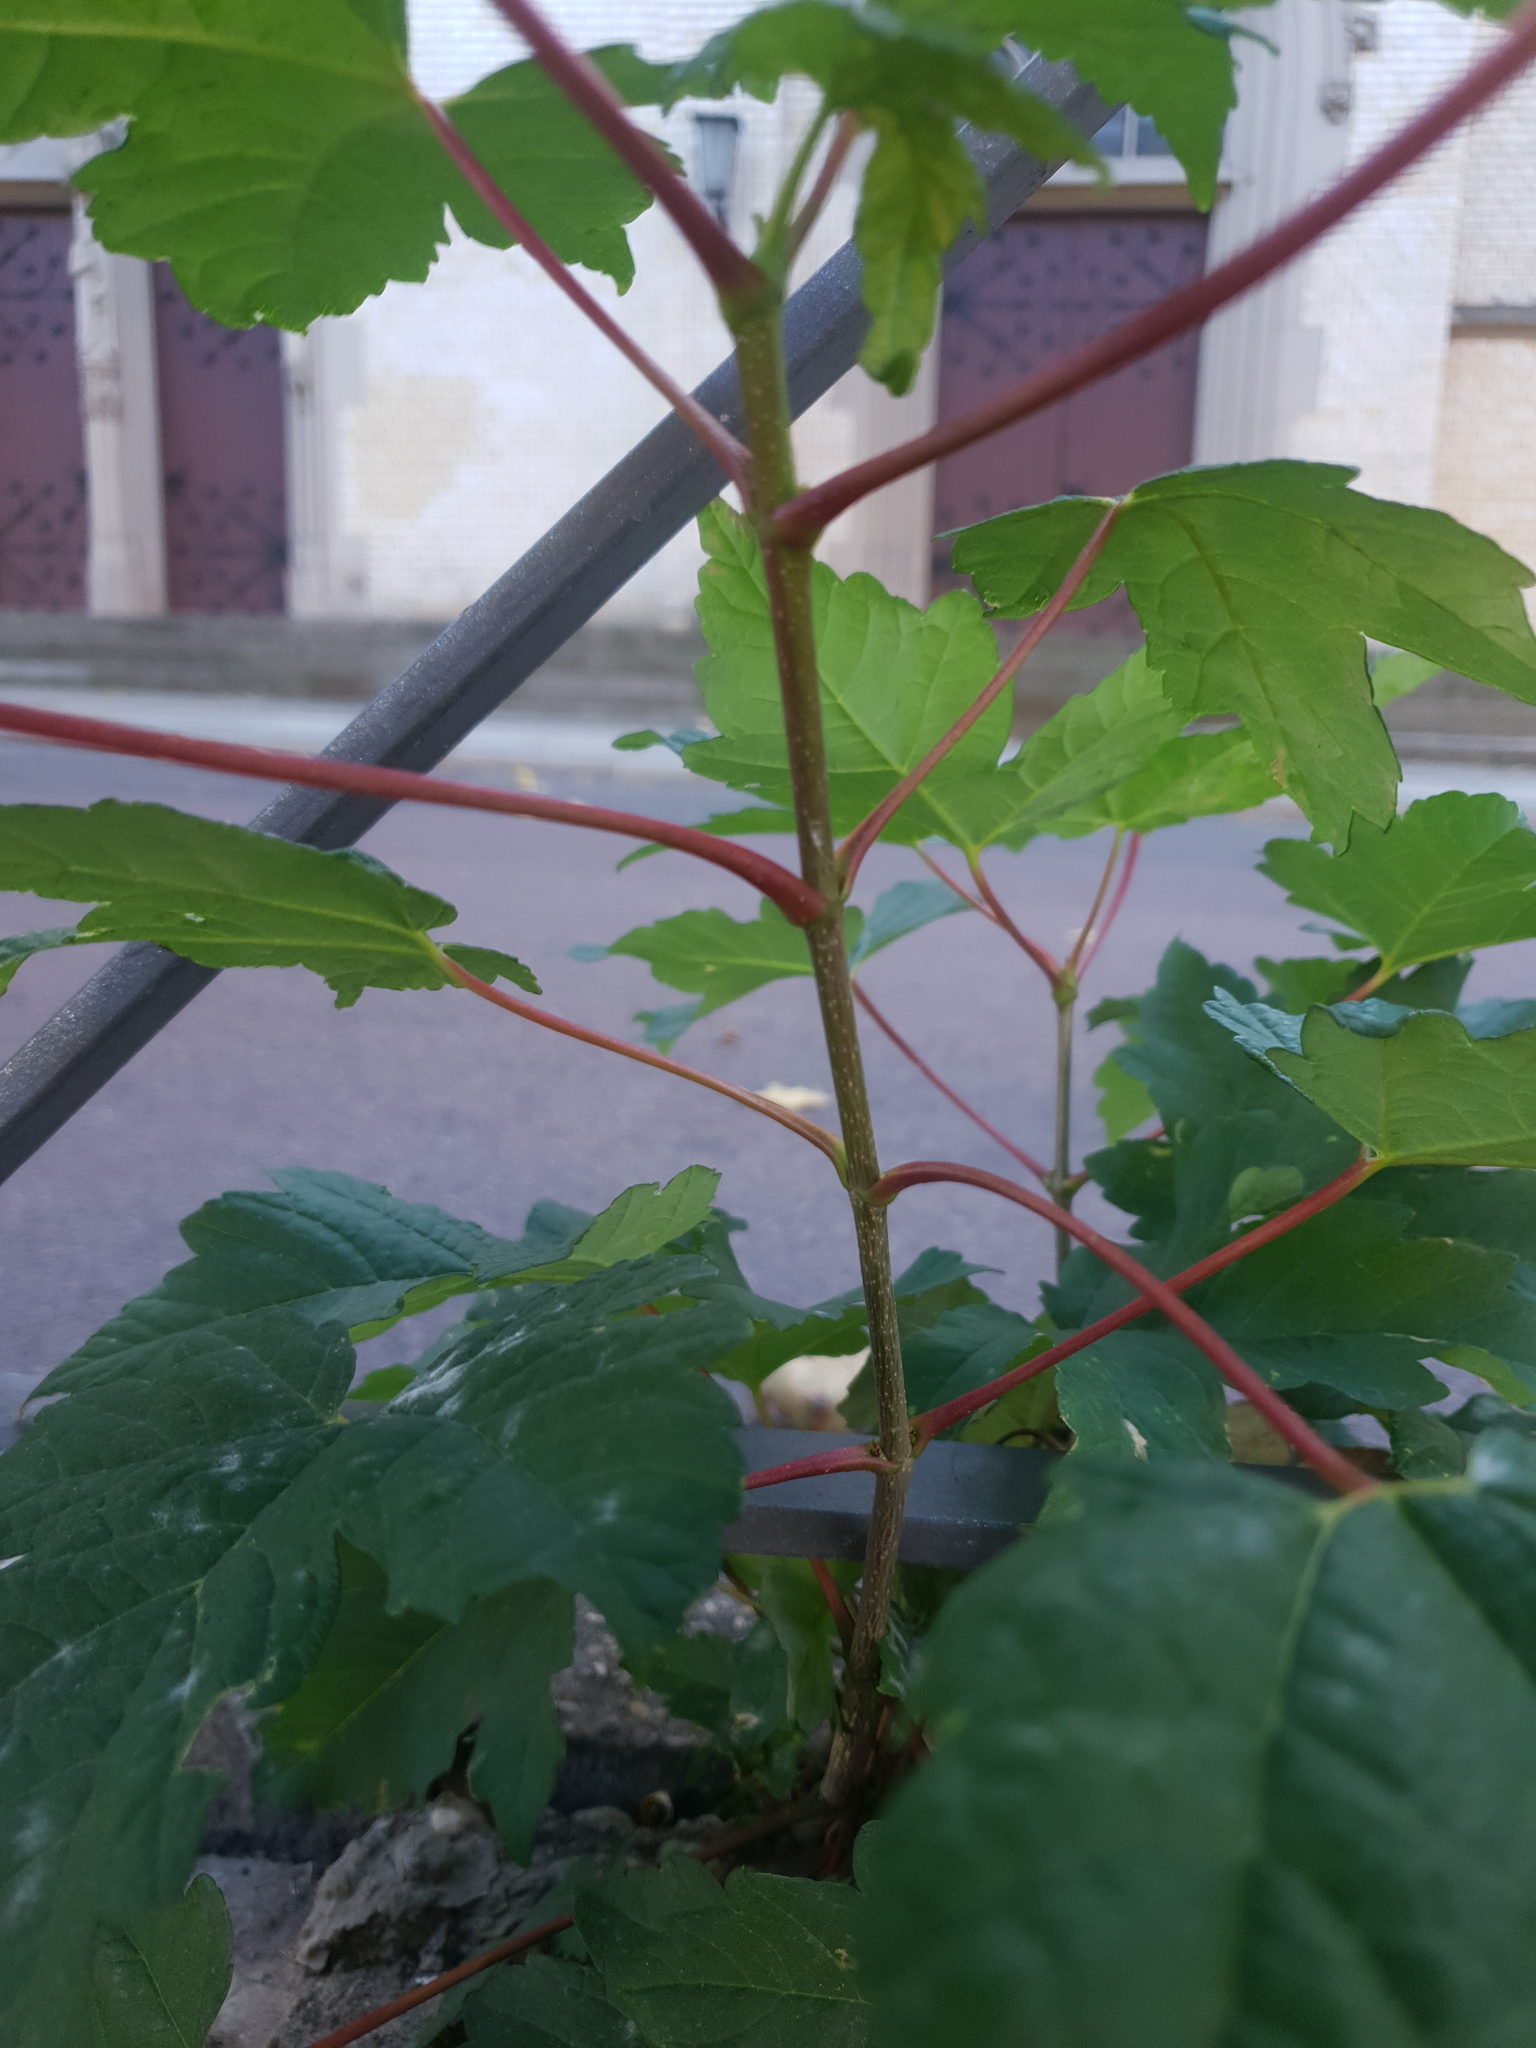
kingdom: Plantae
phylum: Tracheophyta
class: Magnoliopsida
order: Sapindales
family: Sapindaceae
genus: Acer
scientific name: Acer pseudoplatanus
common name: Sycamore
